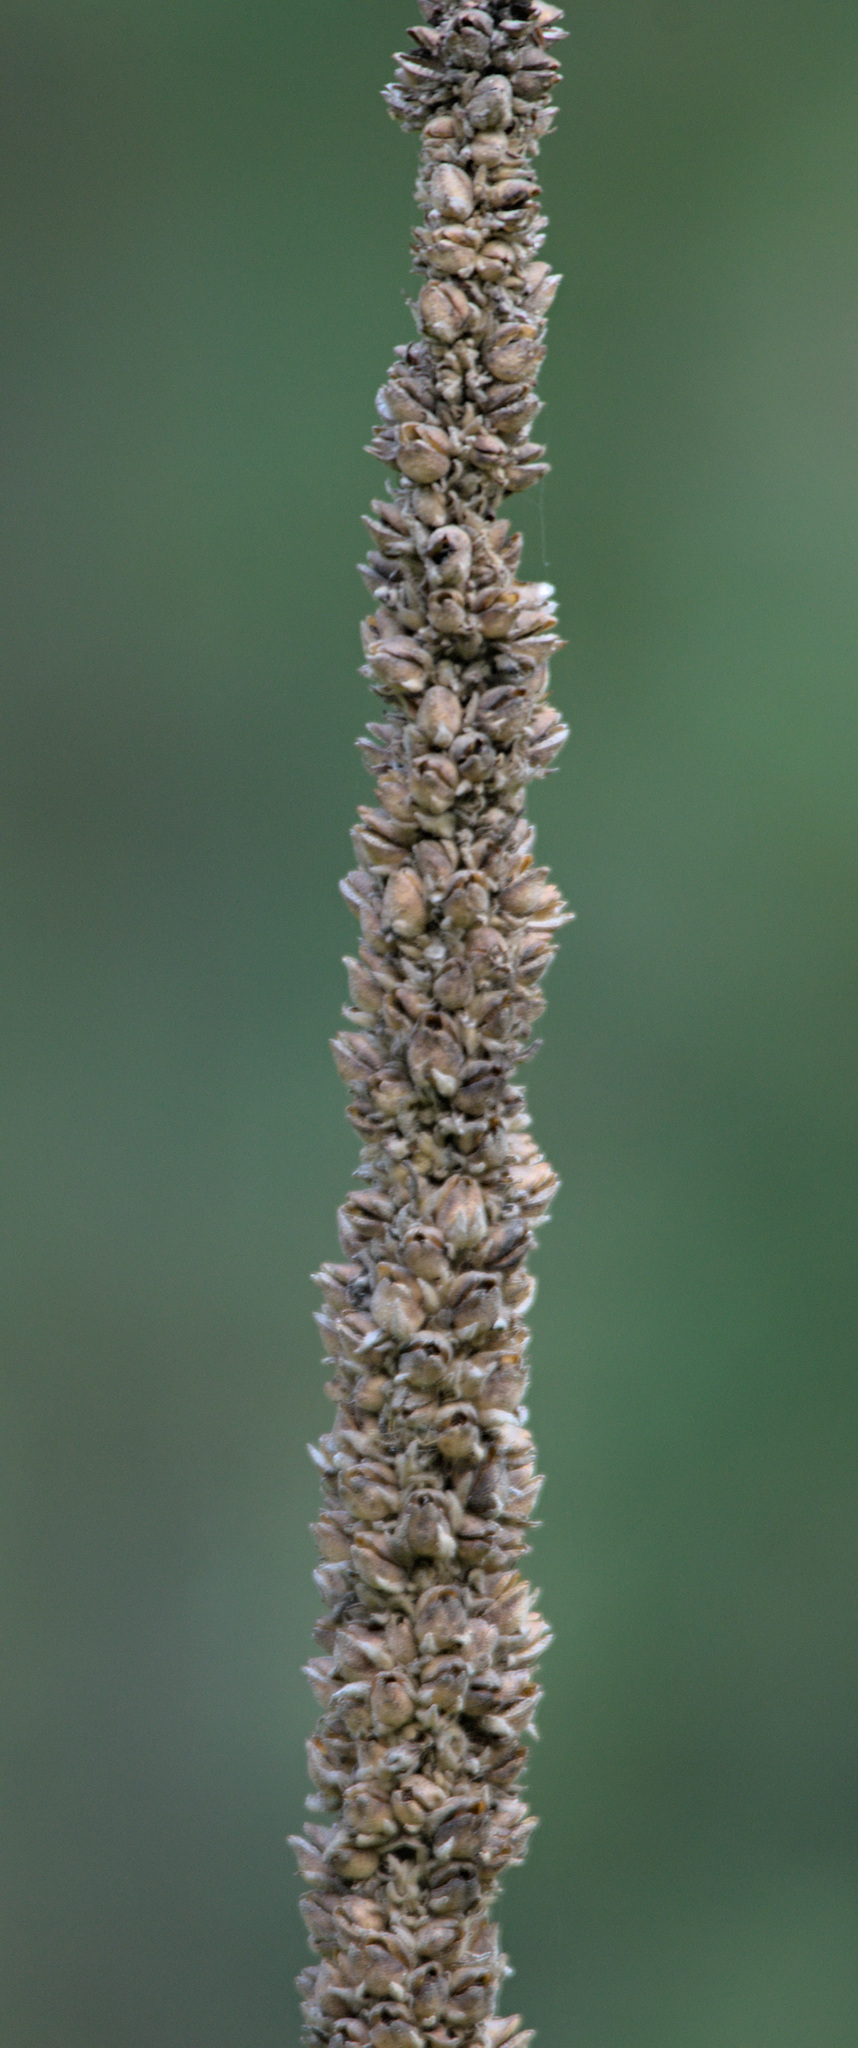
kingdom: Plantae
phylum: Tracheophyta
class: Magnoliopsida
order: Lamiales
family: Scrophulariaceae
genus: Verbascum
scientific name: Verbascum thapsus
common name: Common mullein
